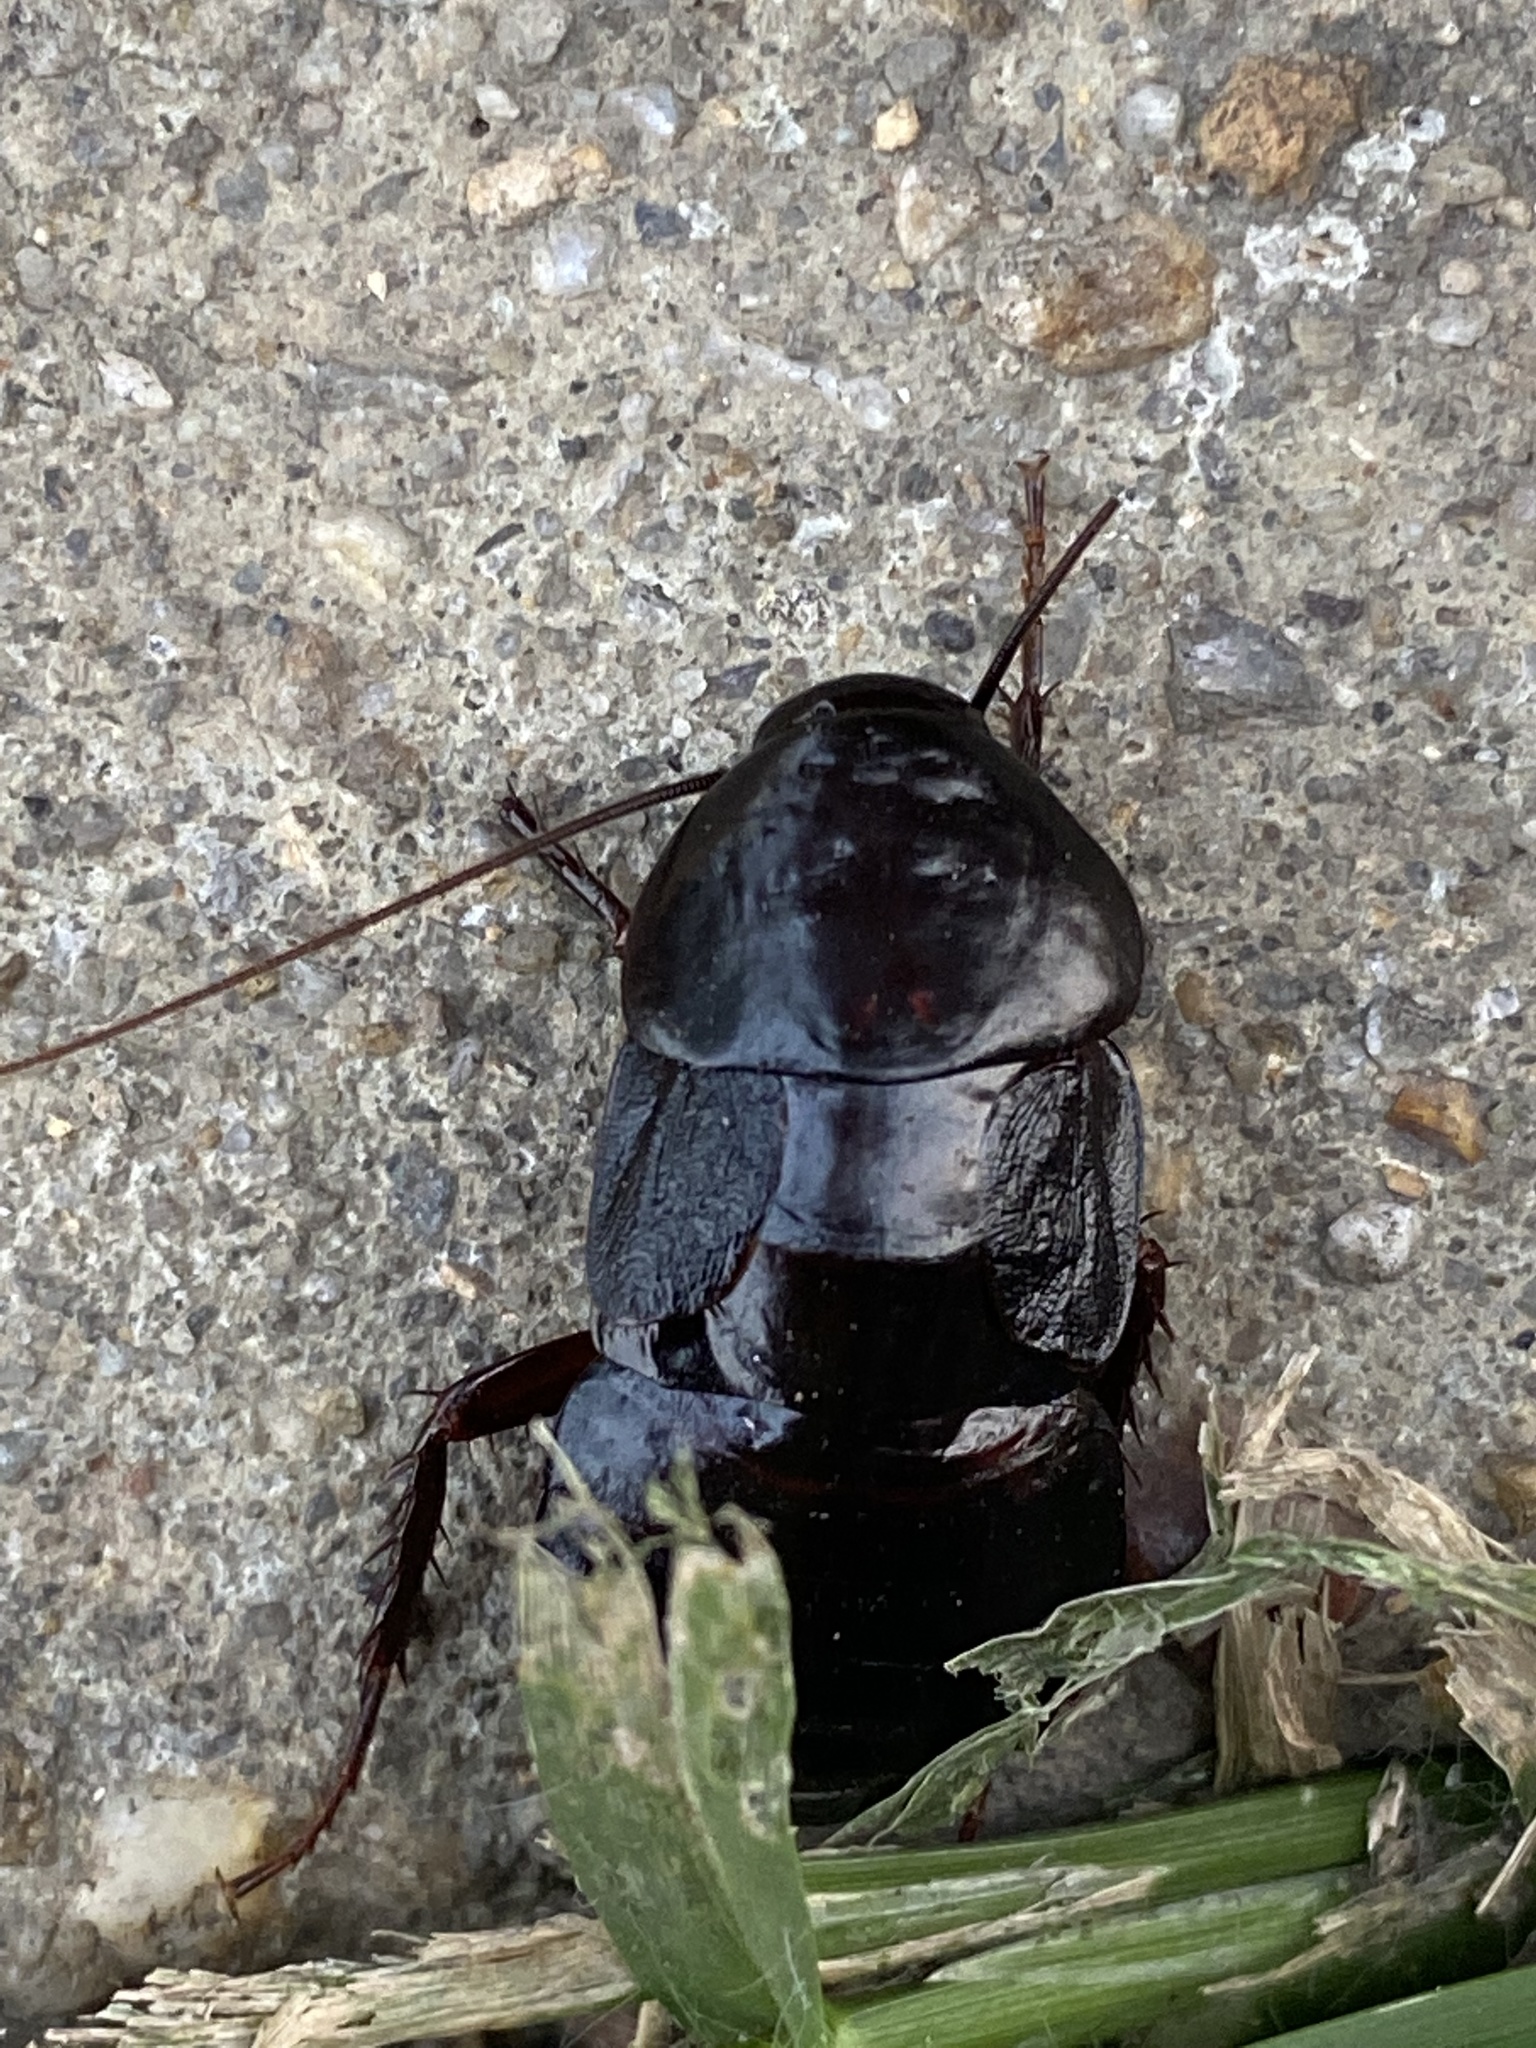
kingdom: Animalia
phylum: Arthropoda
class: Insecta
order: Blattodea
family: Blattidae
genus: Blatta
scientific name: Blatta orientalis
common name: Oriental cockroach
